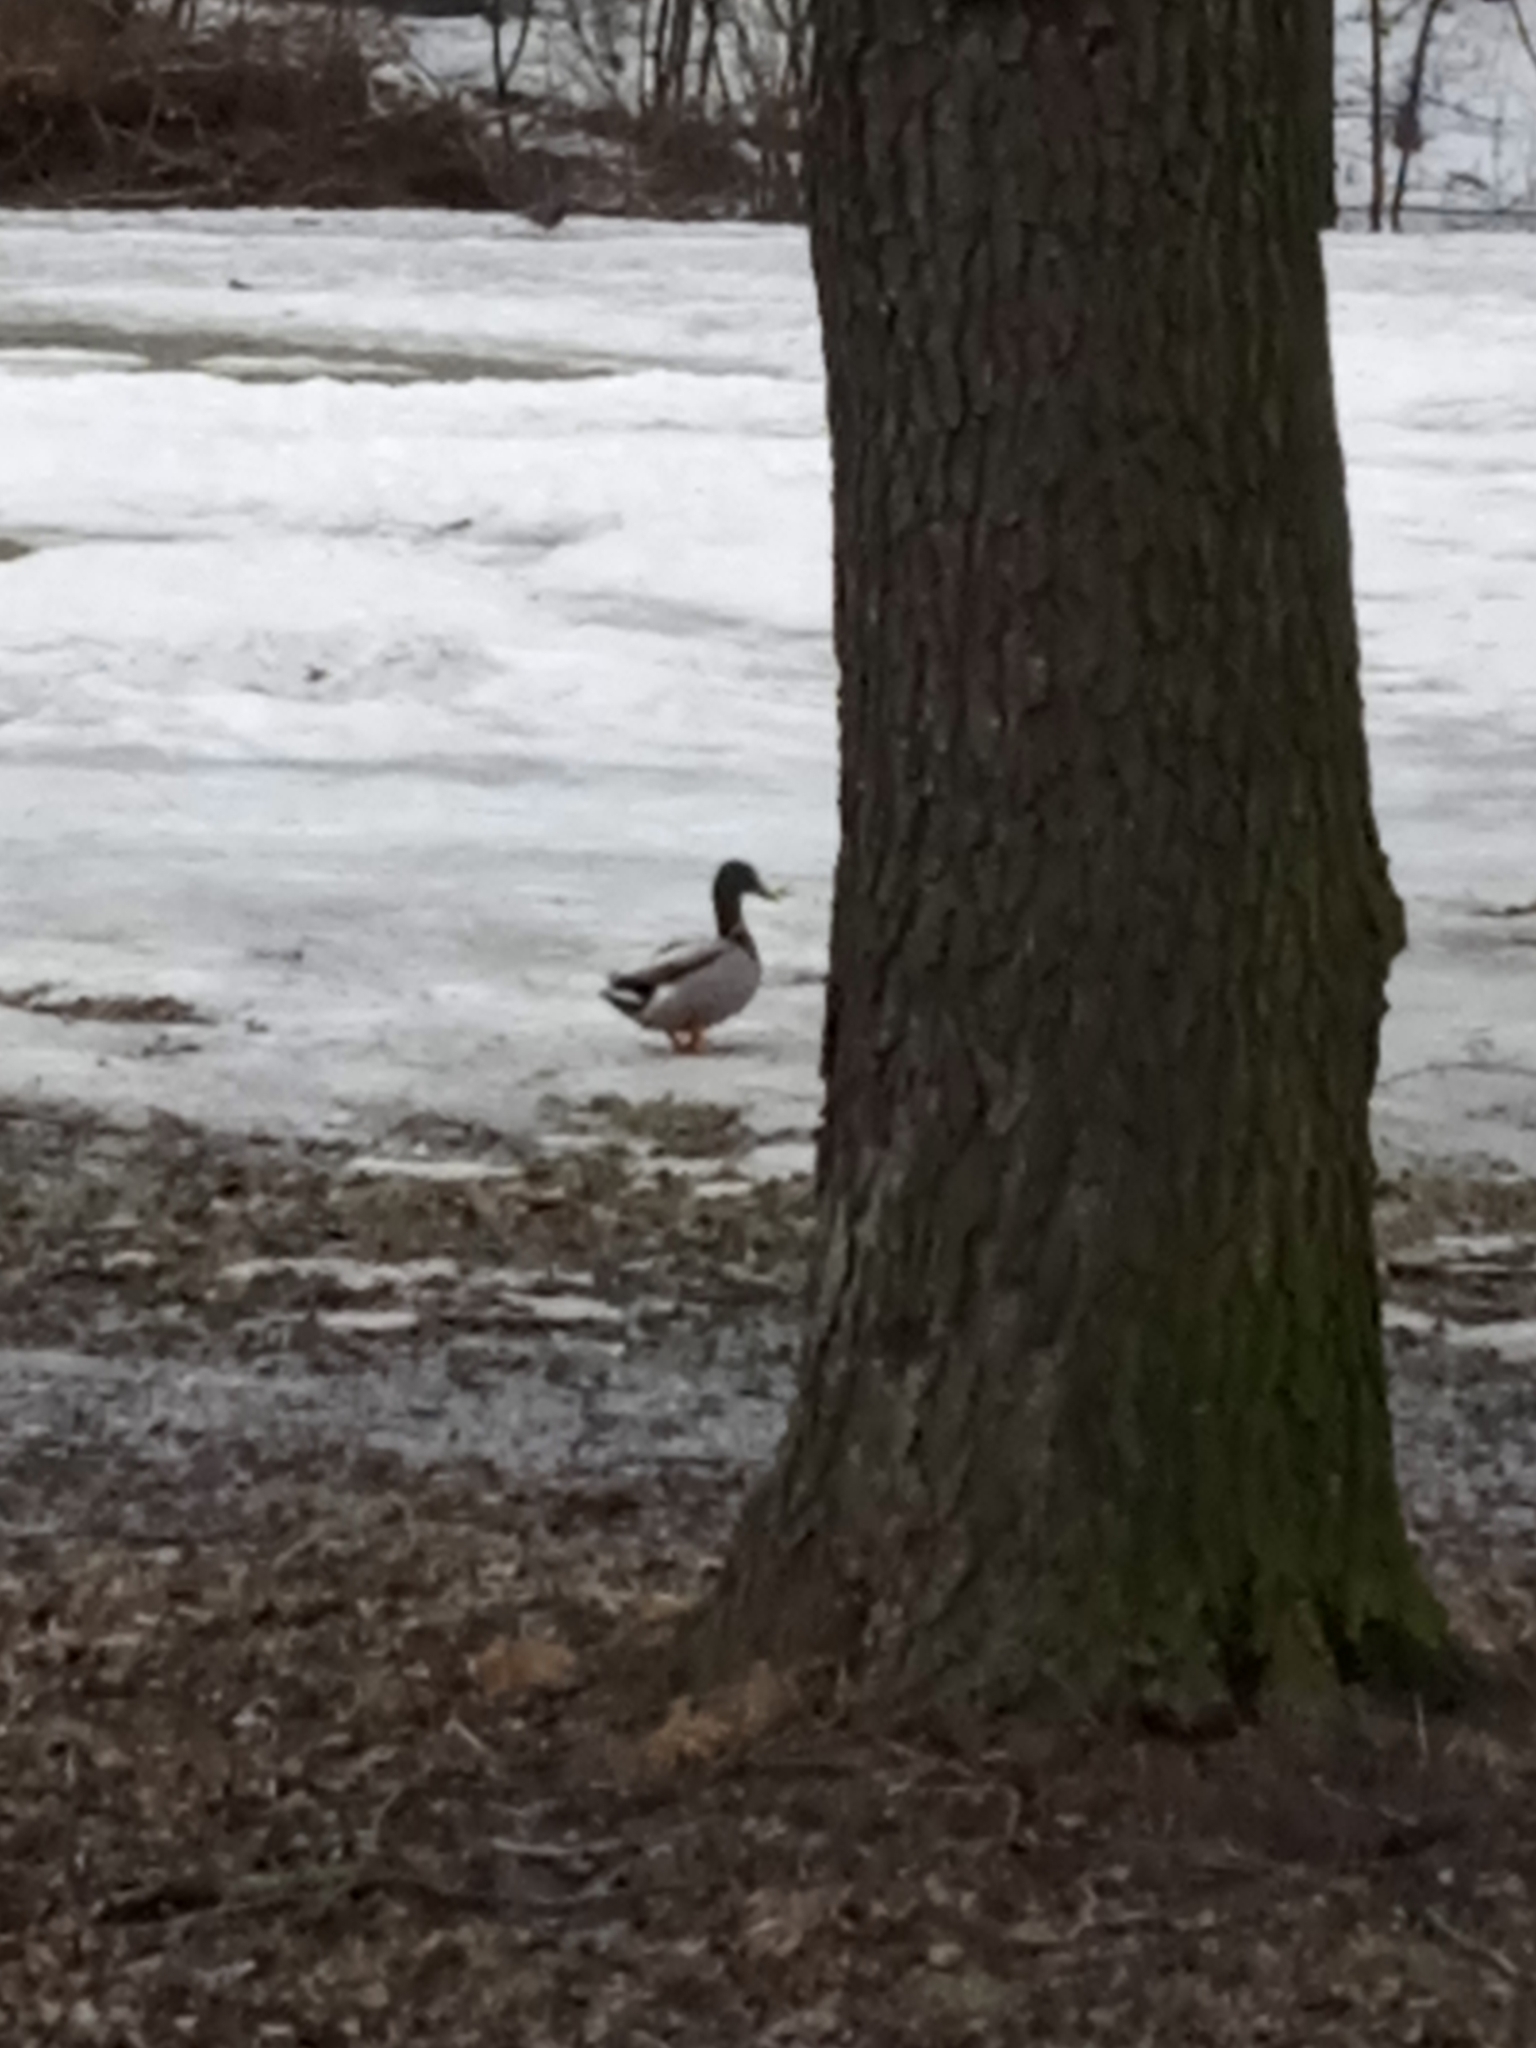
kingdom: Animalia
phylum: Chordata
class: Aves
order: Anseriformes
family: Anatidae
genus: Anas
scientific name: Anas platyrhynchos
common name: Mallard
